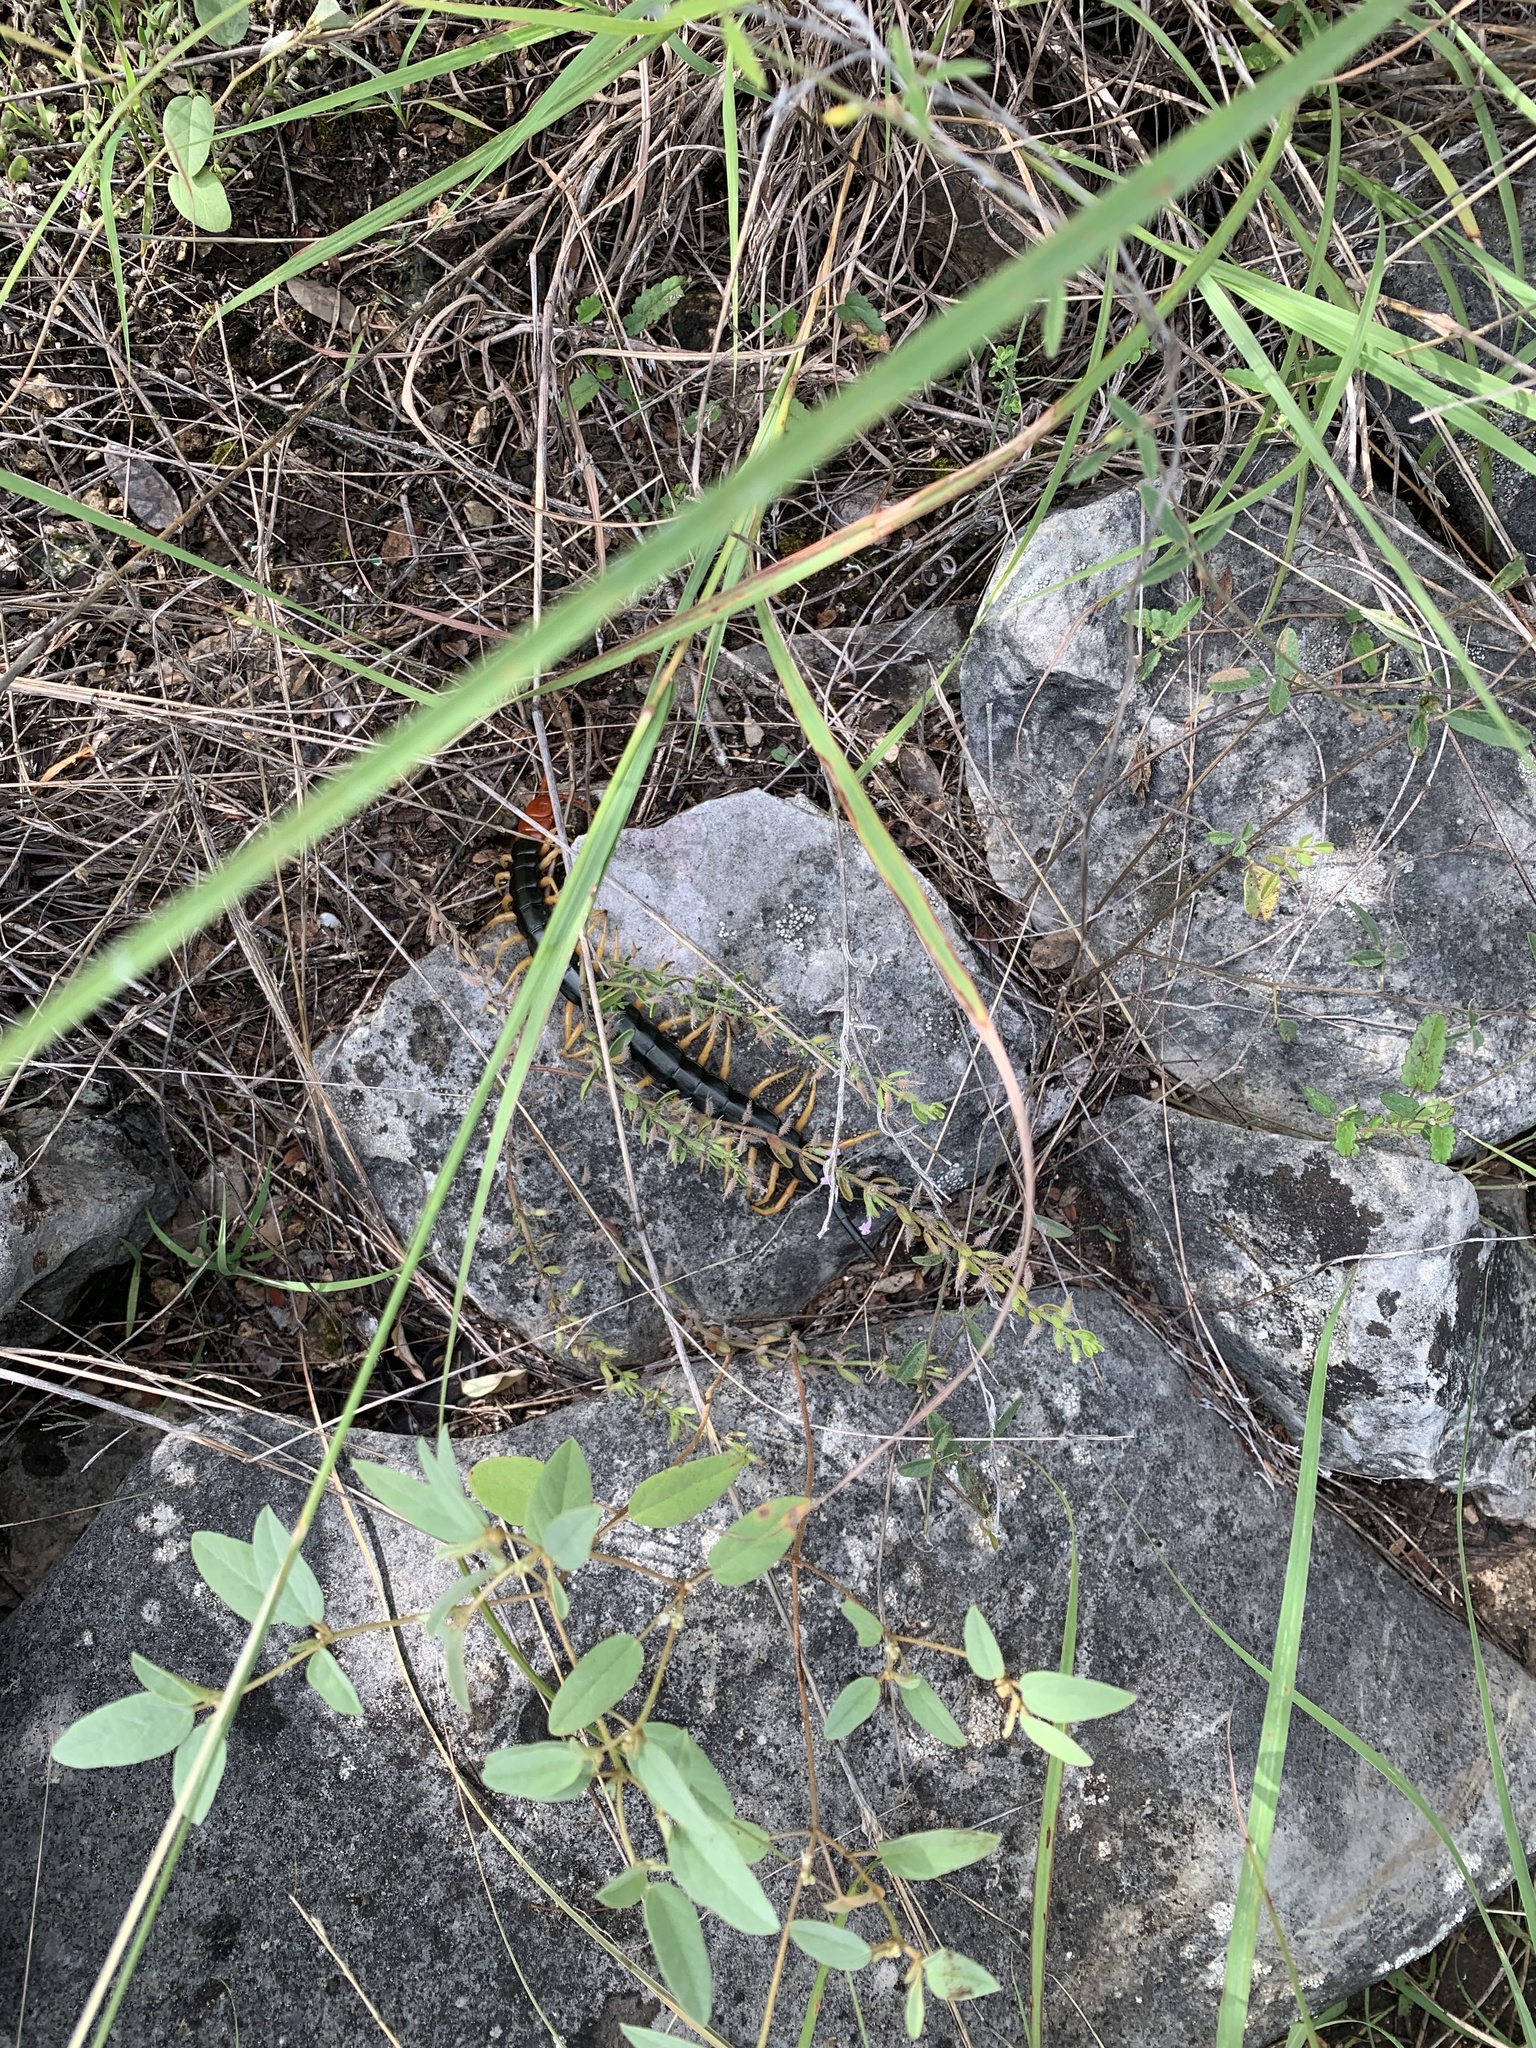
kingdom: Animalia
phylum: Arthropoda
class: Chilopoda
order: Scolopendromorpha
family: Scolopendridae
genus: Scolopendra
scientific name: Scolopendra heros
